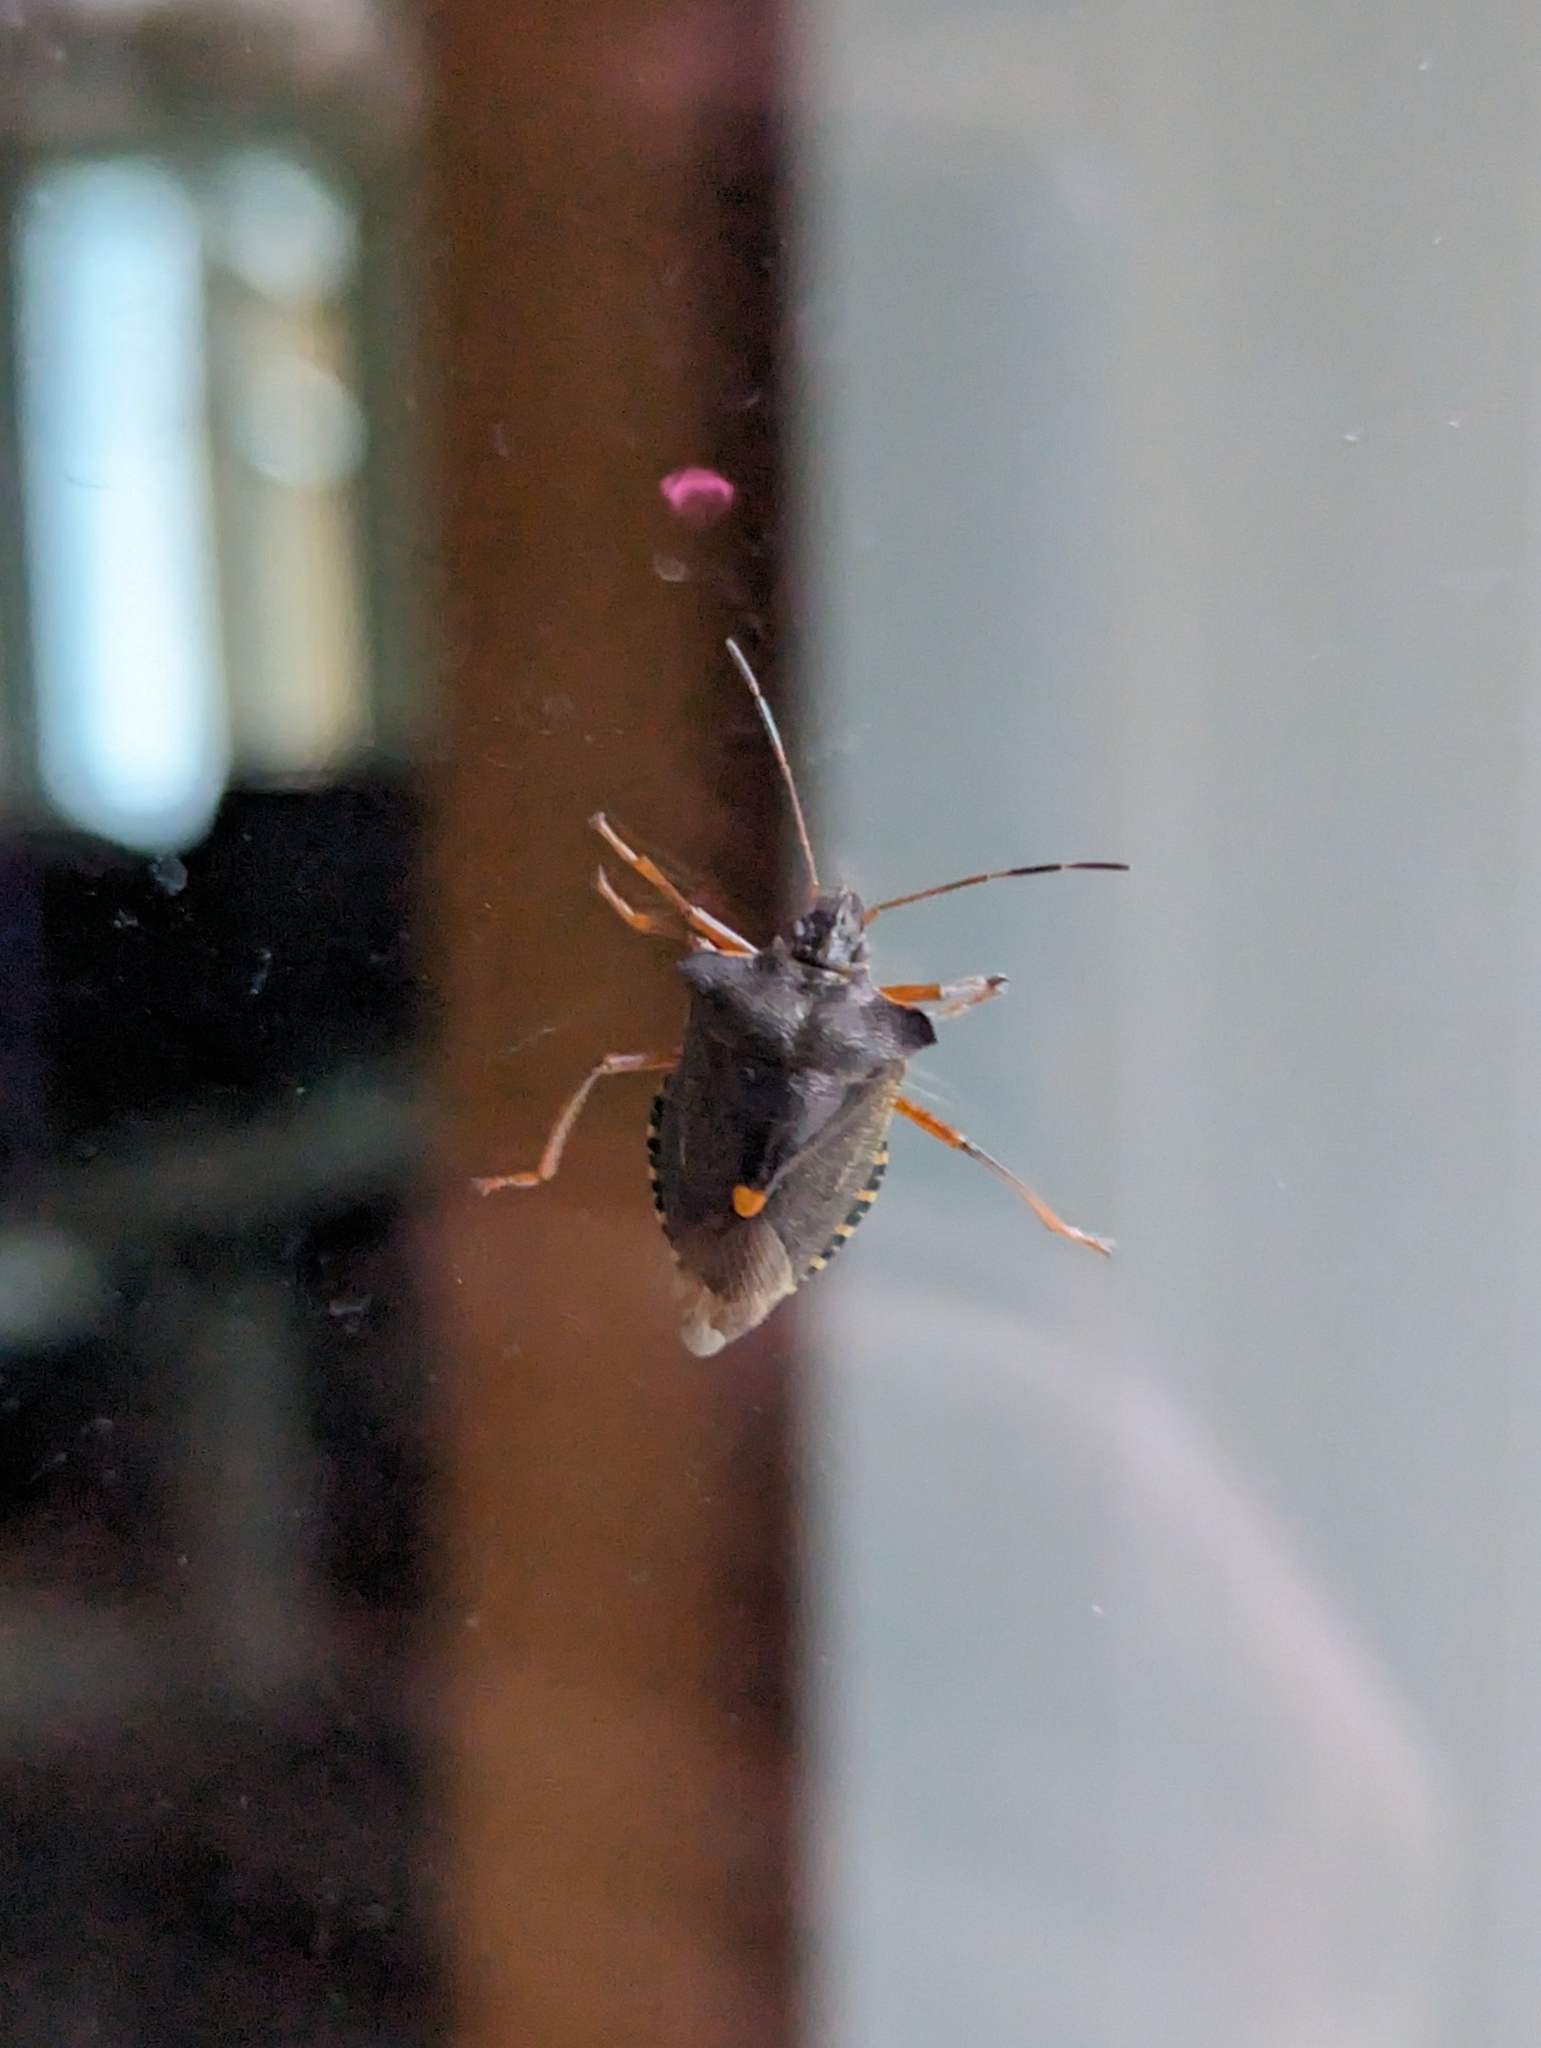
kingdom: Animalia
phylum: Arthropoda
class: Insecta
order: Hemiptera
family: Pentatomidae
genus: Pentatoma
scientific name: Pentatoma rufipes
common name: Forest bug
